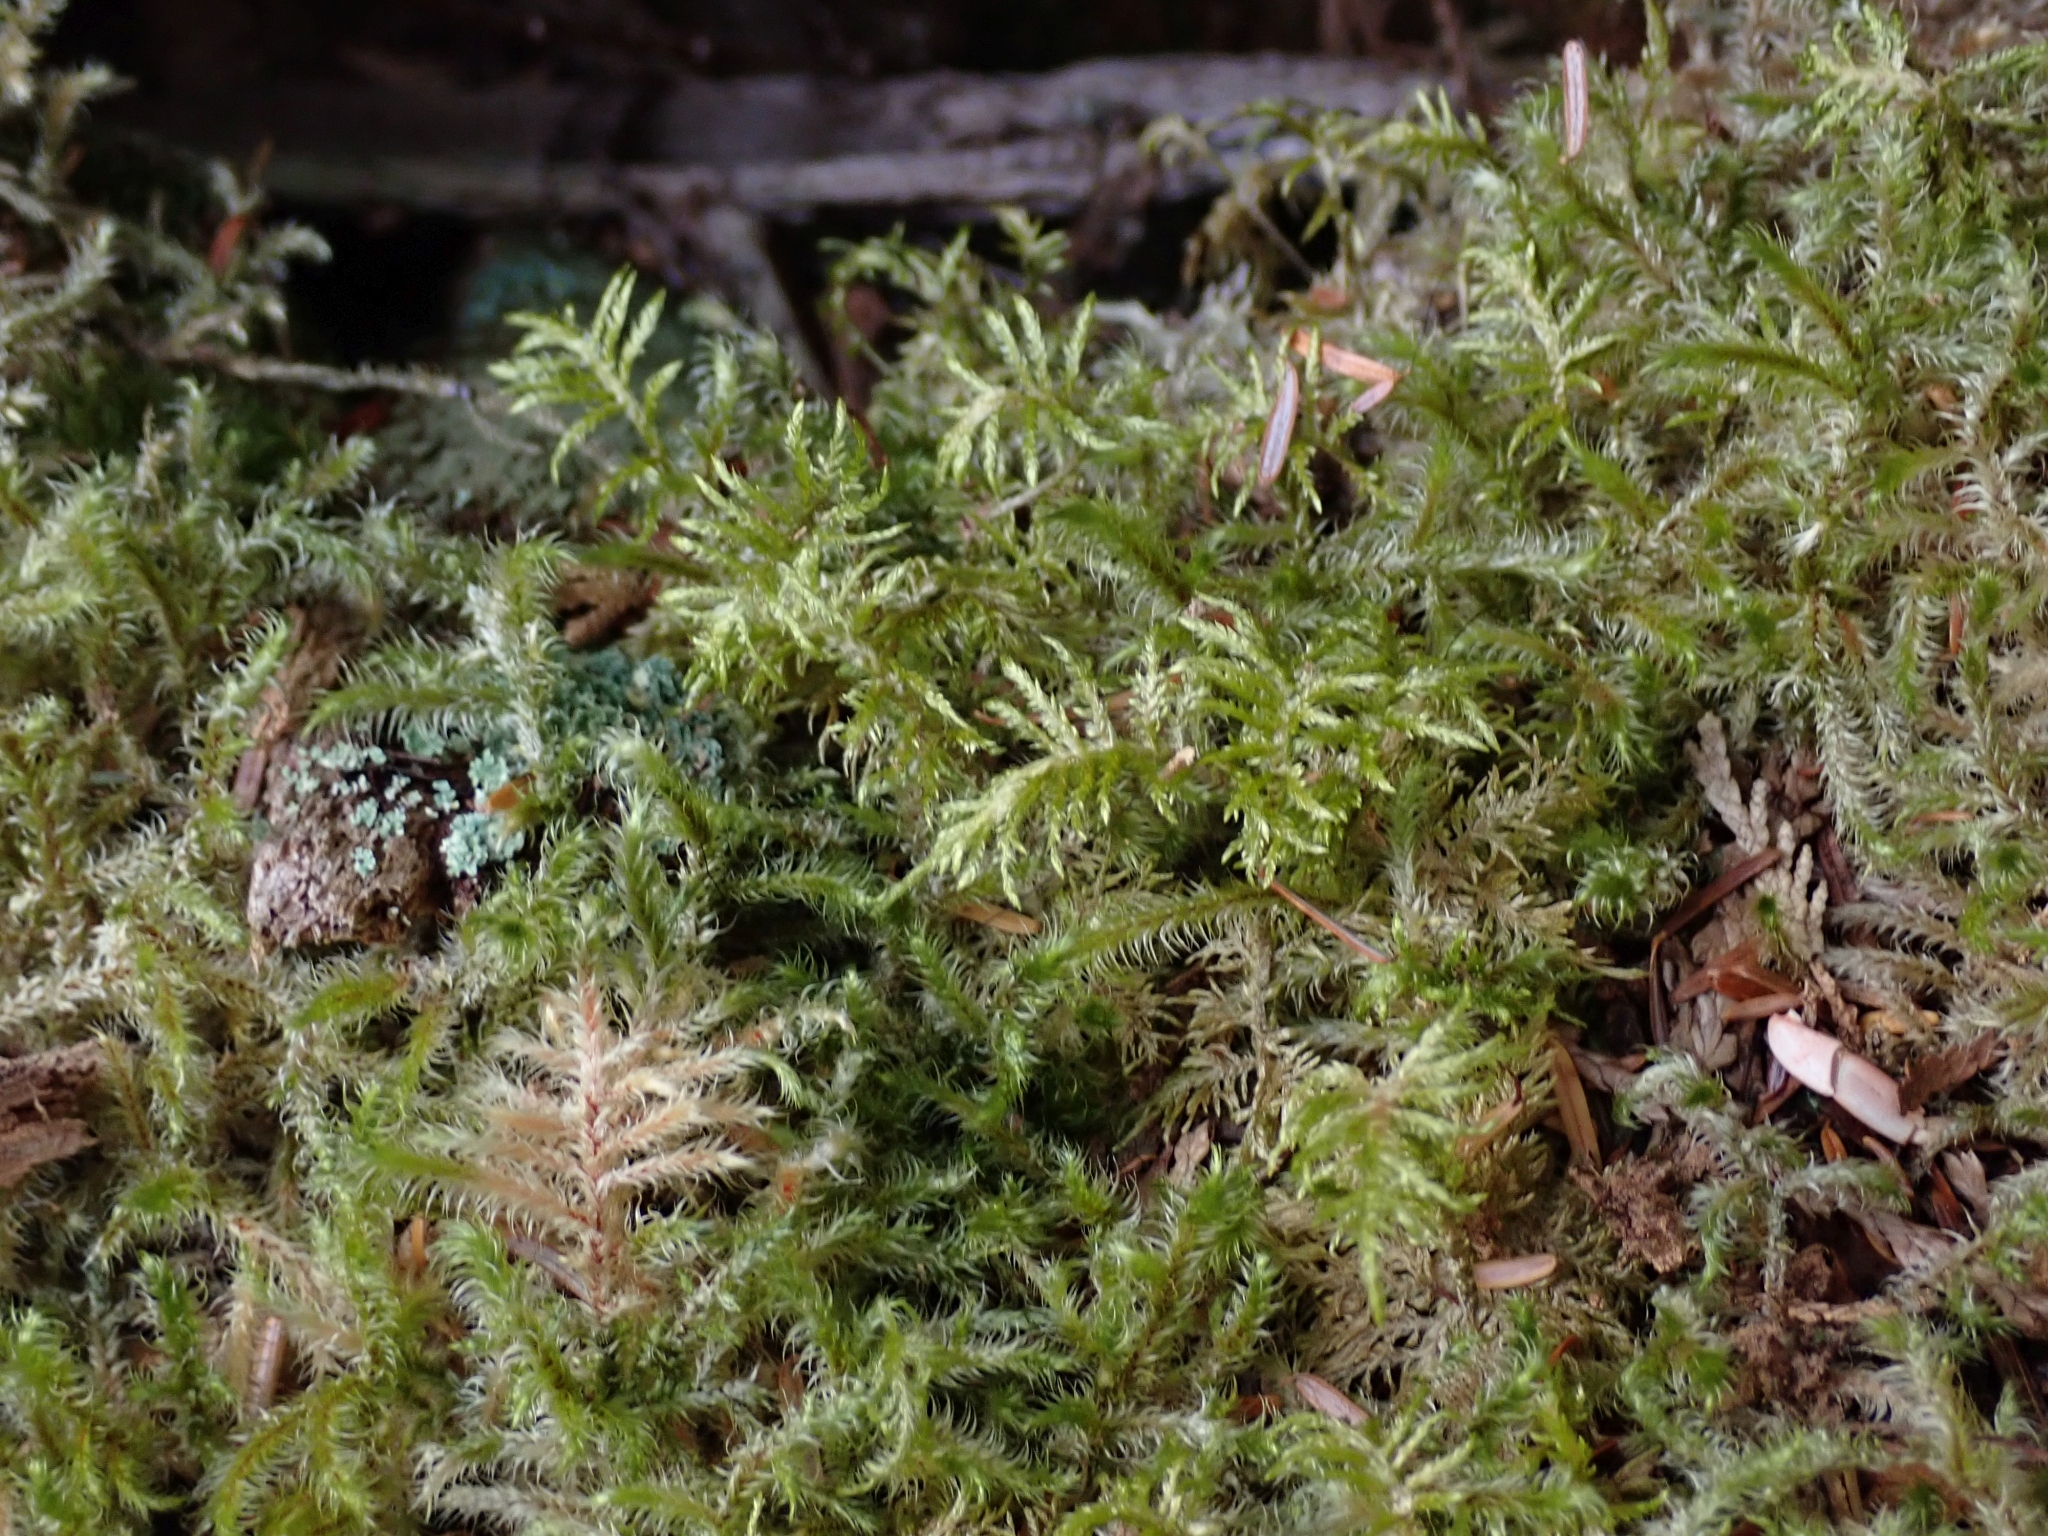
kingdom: Plantae
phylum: Bryophyta
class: Bryopsida
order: Hypnales
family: Hylocomiaceae
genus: Hylocomium
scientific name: Hylocomium splendens
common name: Stairstep moss
